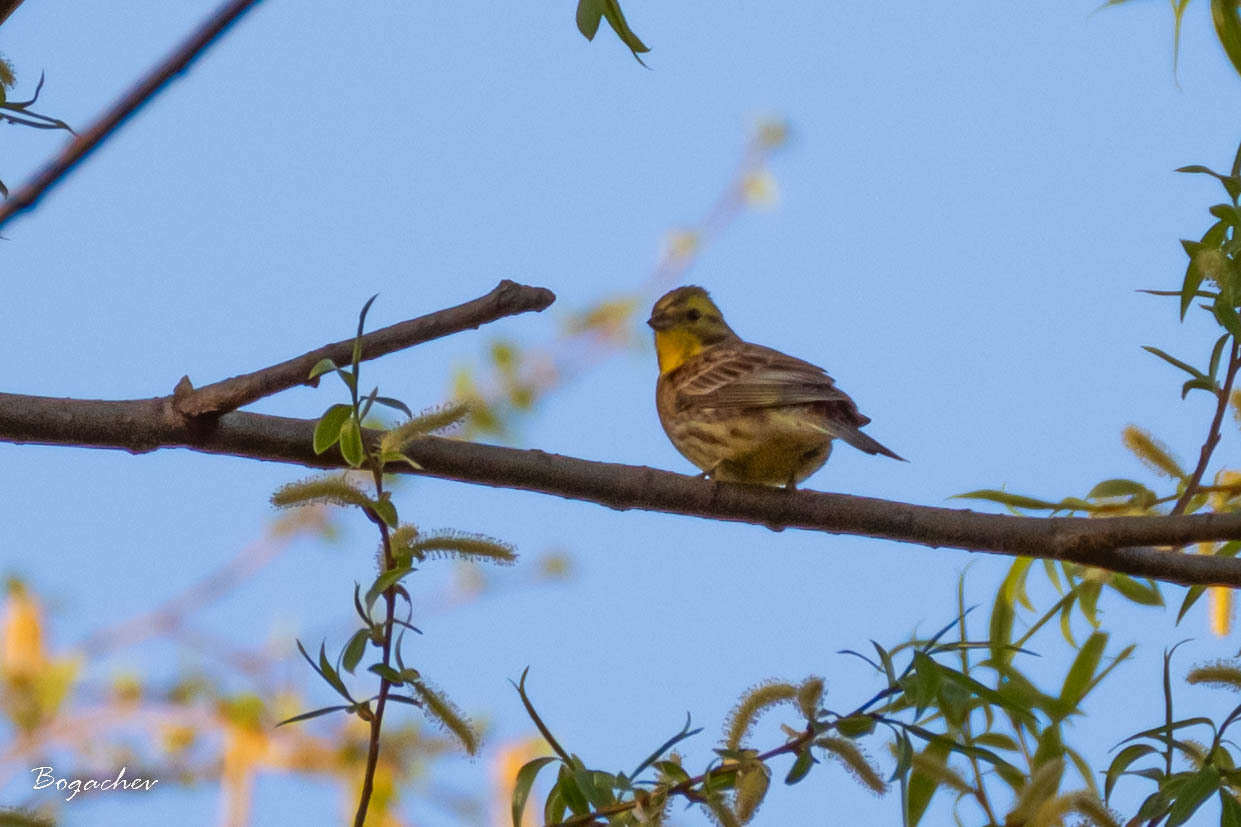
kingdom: Animalia
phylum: Chordata
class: Aves
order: Passeriformes
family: Emberizidae
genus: Emberiza
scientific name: Emberiza citrinella
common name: Yellowhammer
